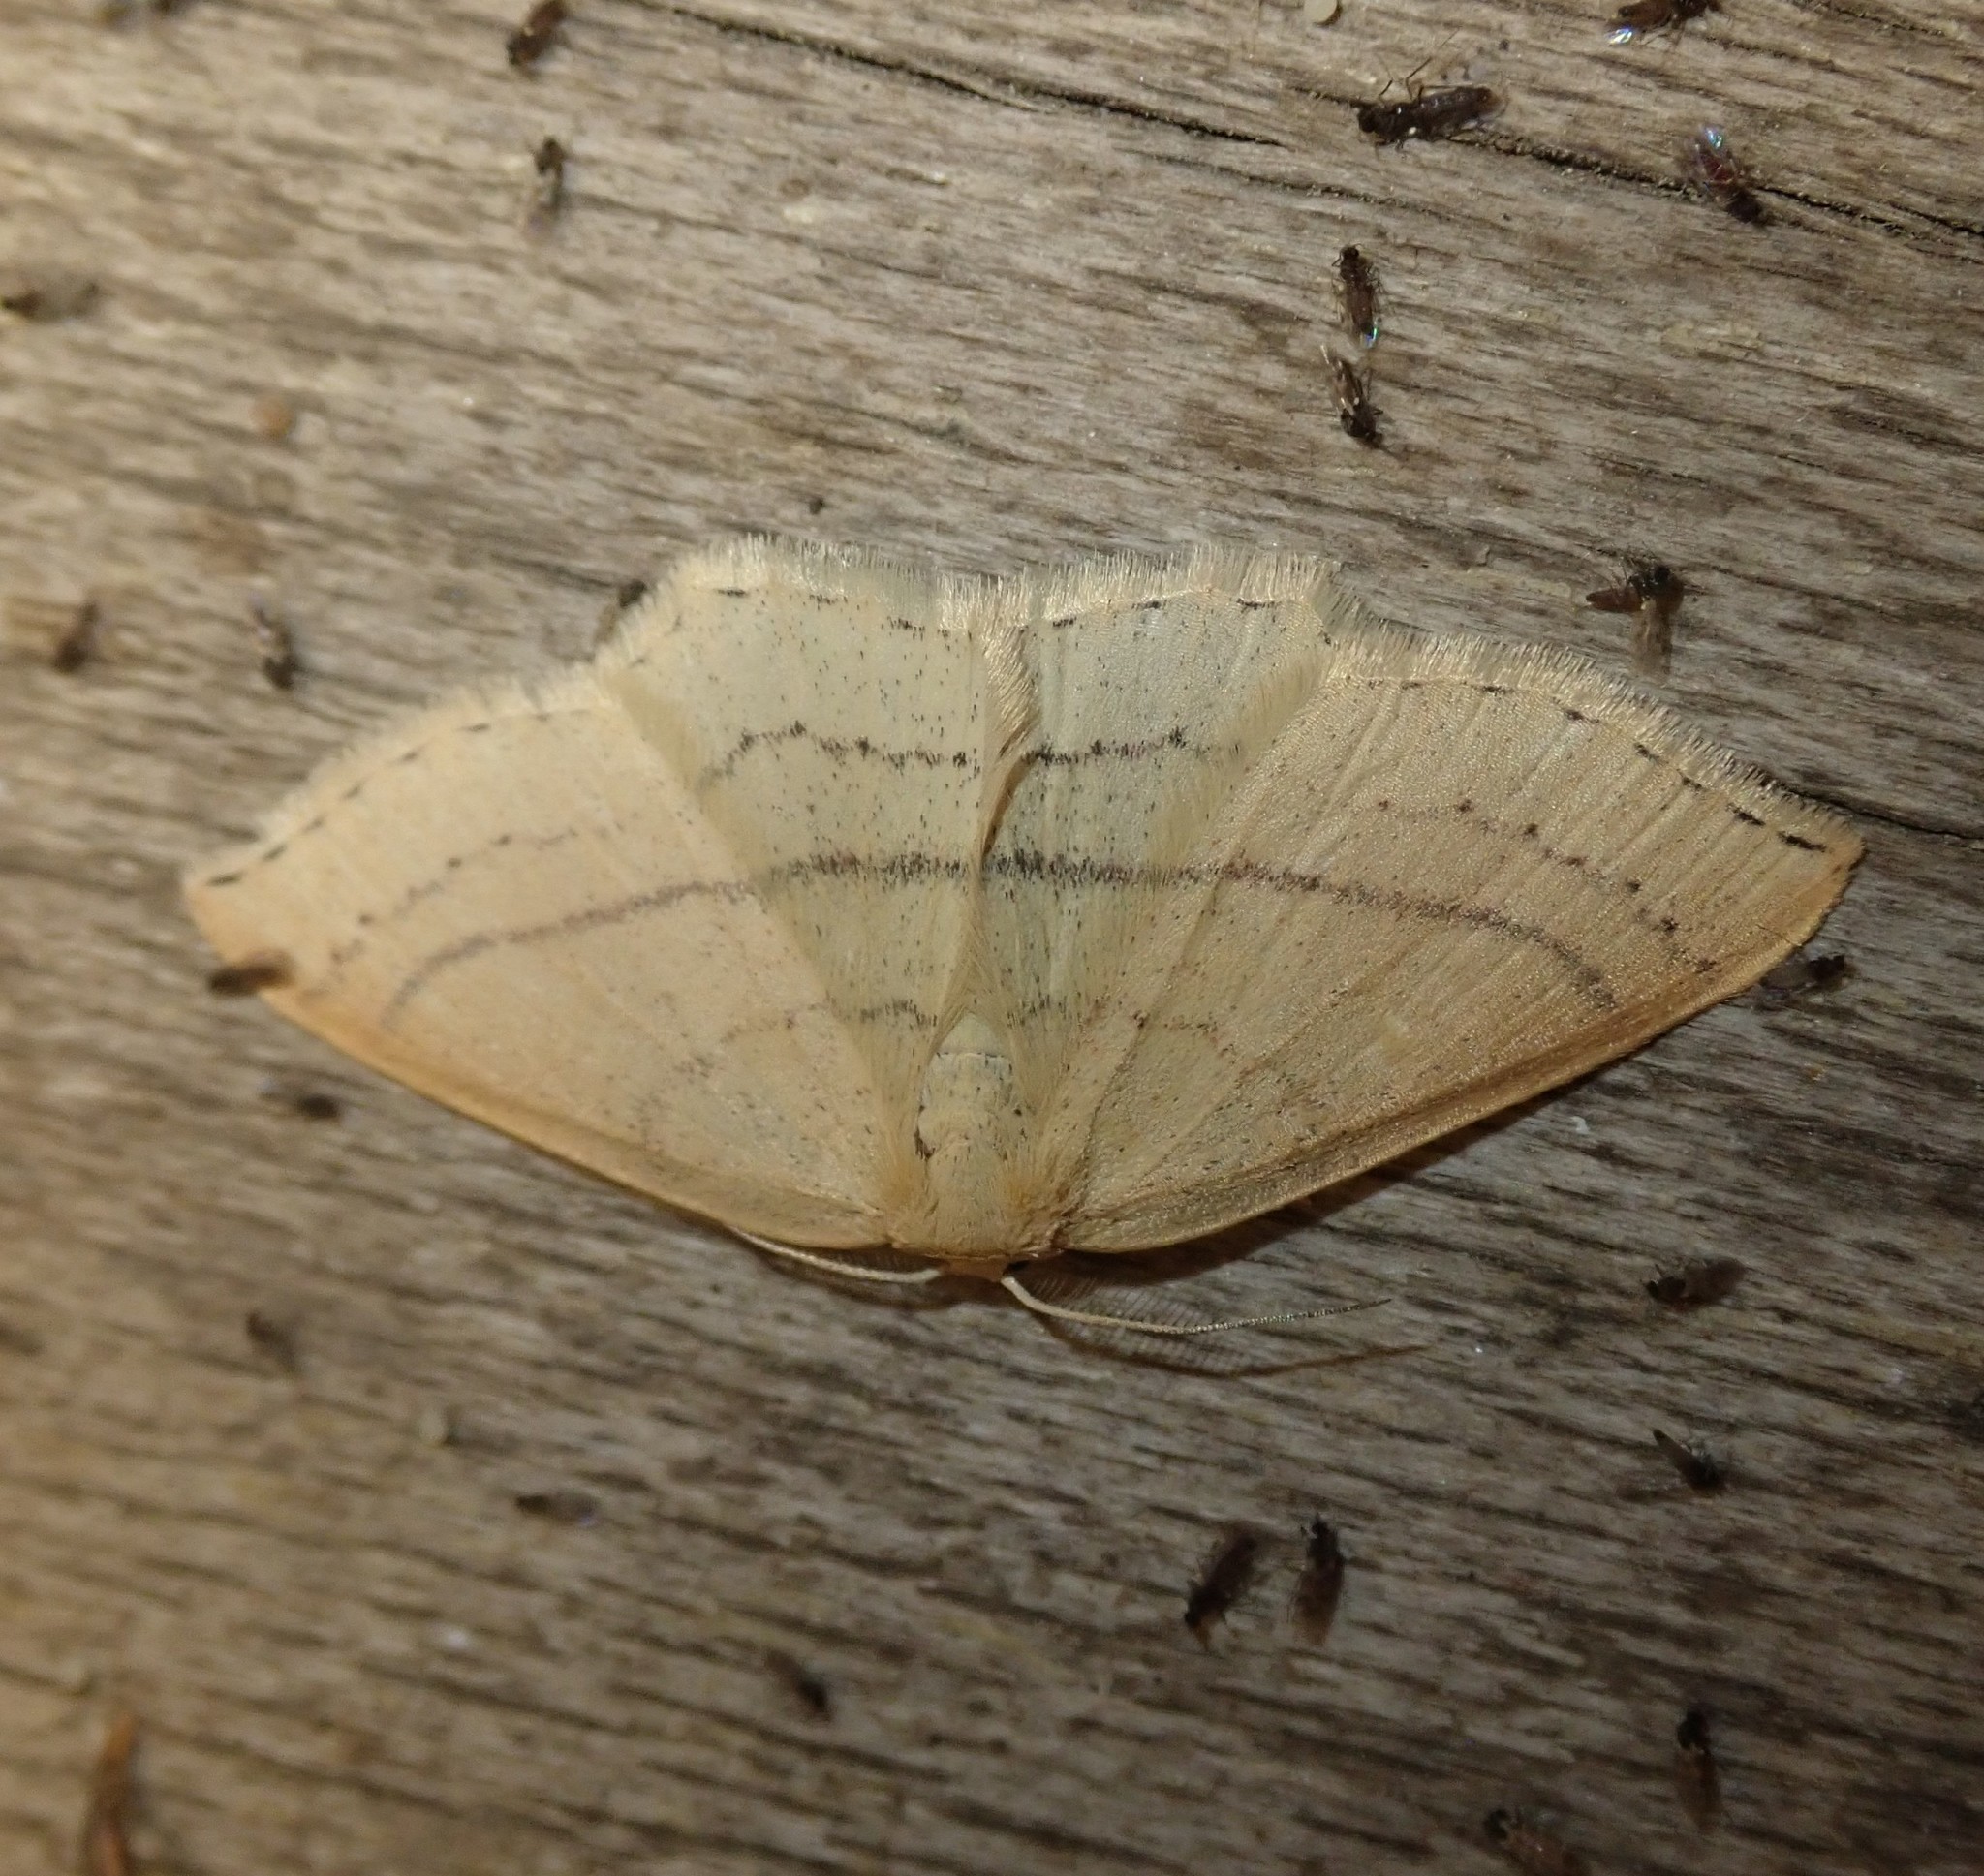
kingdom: Animalia
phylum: Arthropoda
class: Insecta
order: Lepidoptera
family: Geometridae
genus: Cyclophora
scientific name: Cyclophora linearia
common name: Clay triple-lines
